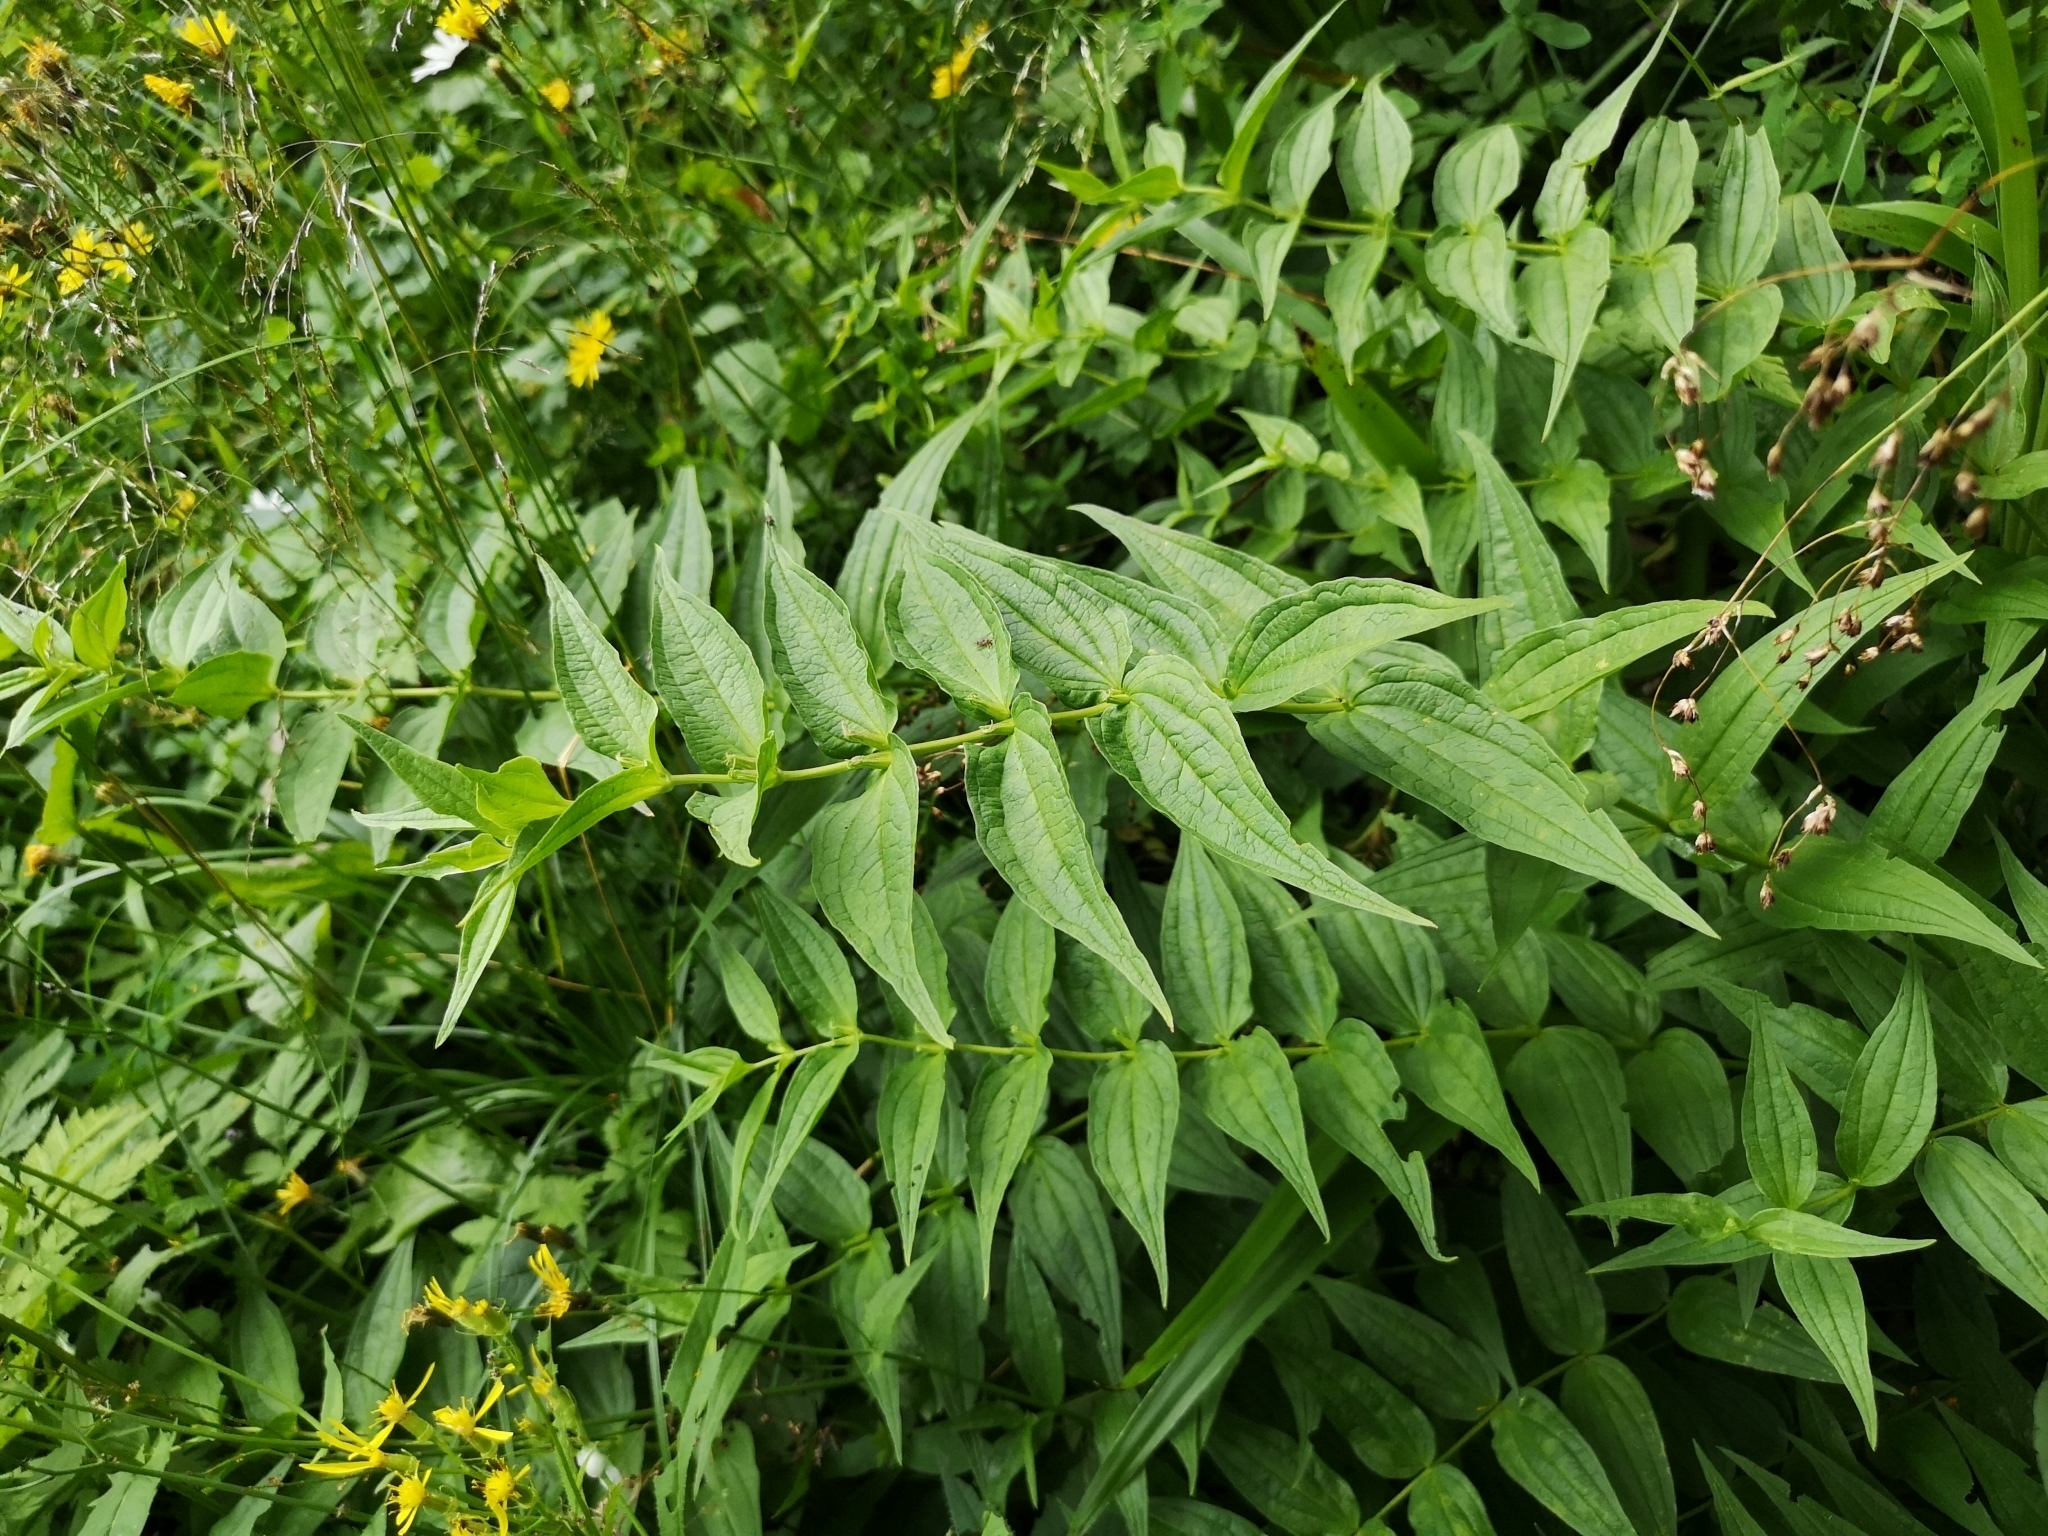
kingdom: Plantae
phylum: Tracheophyta
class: Magnoliopsida
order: Gentianales
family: Gentianaceae
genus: Gentiana
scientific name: Gentiana asclepiadea
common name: Willow gentian
